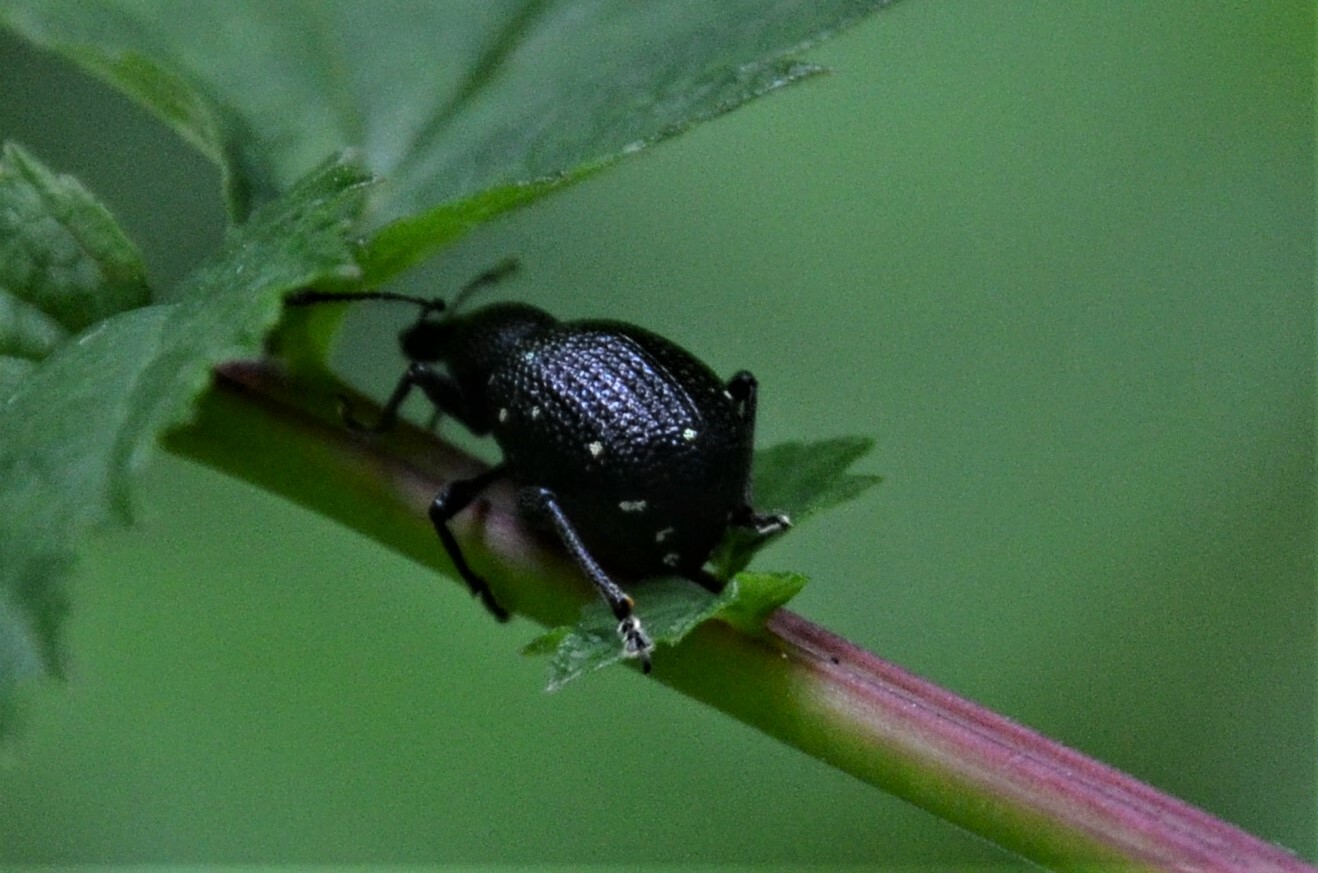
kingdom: Animalia
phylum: Arthropoda
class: Insecta
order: Coleoptera
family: Curculionidae
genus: Otiorhynchus
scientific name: Otiorhynchus gemmatus
